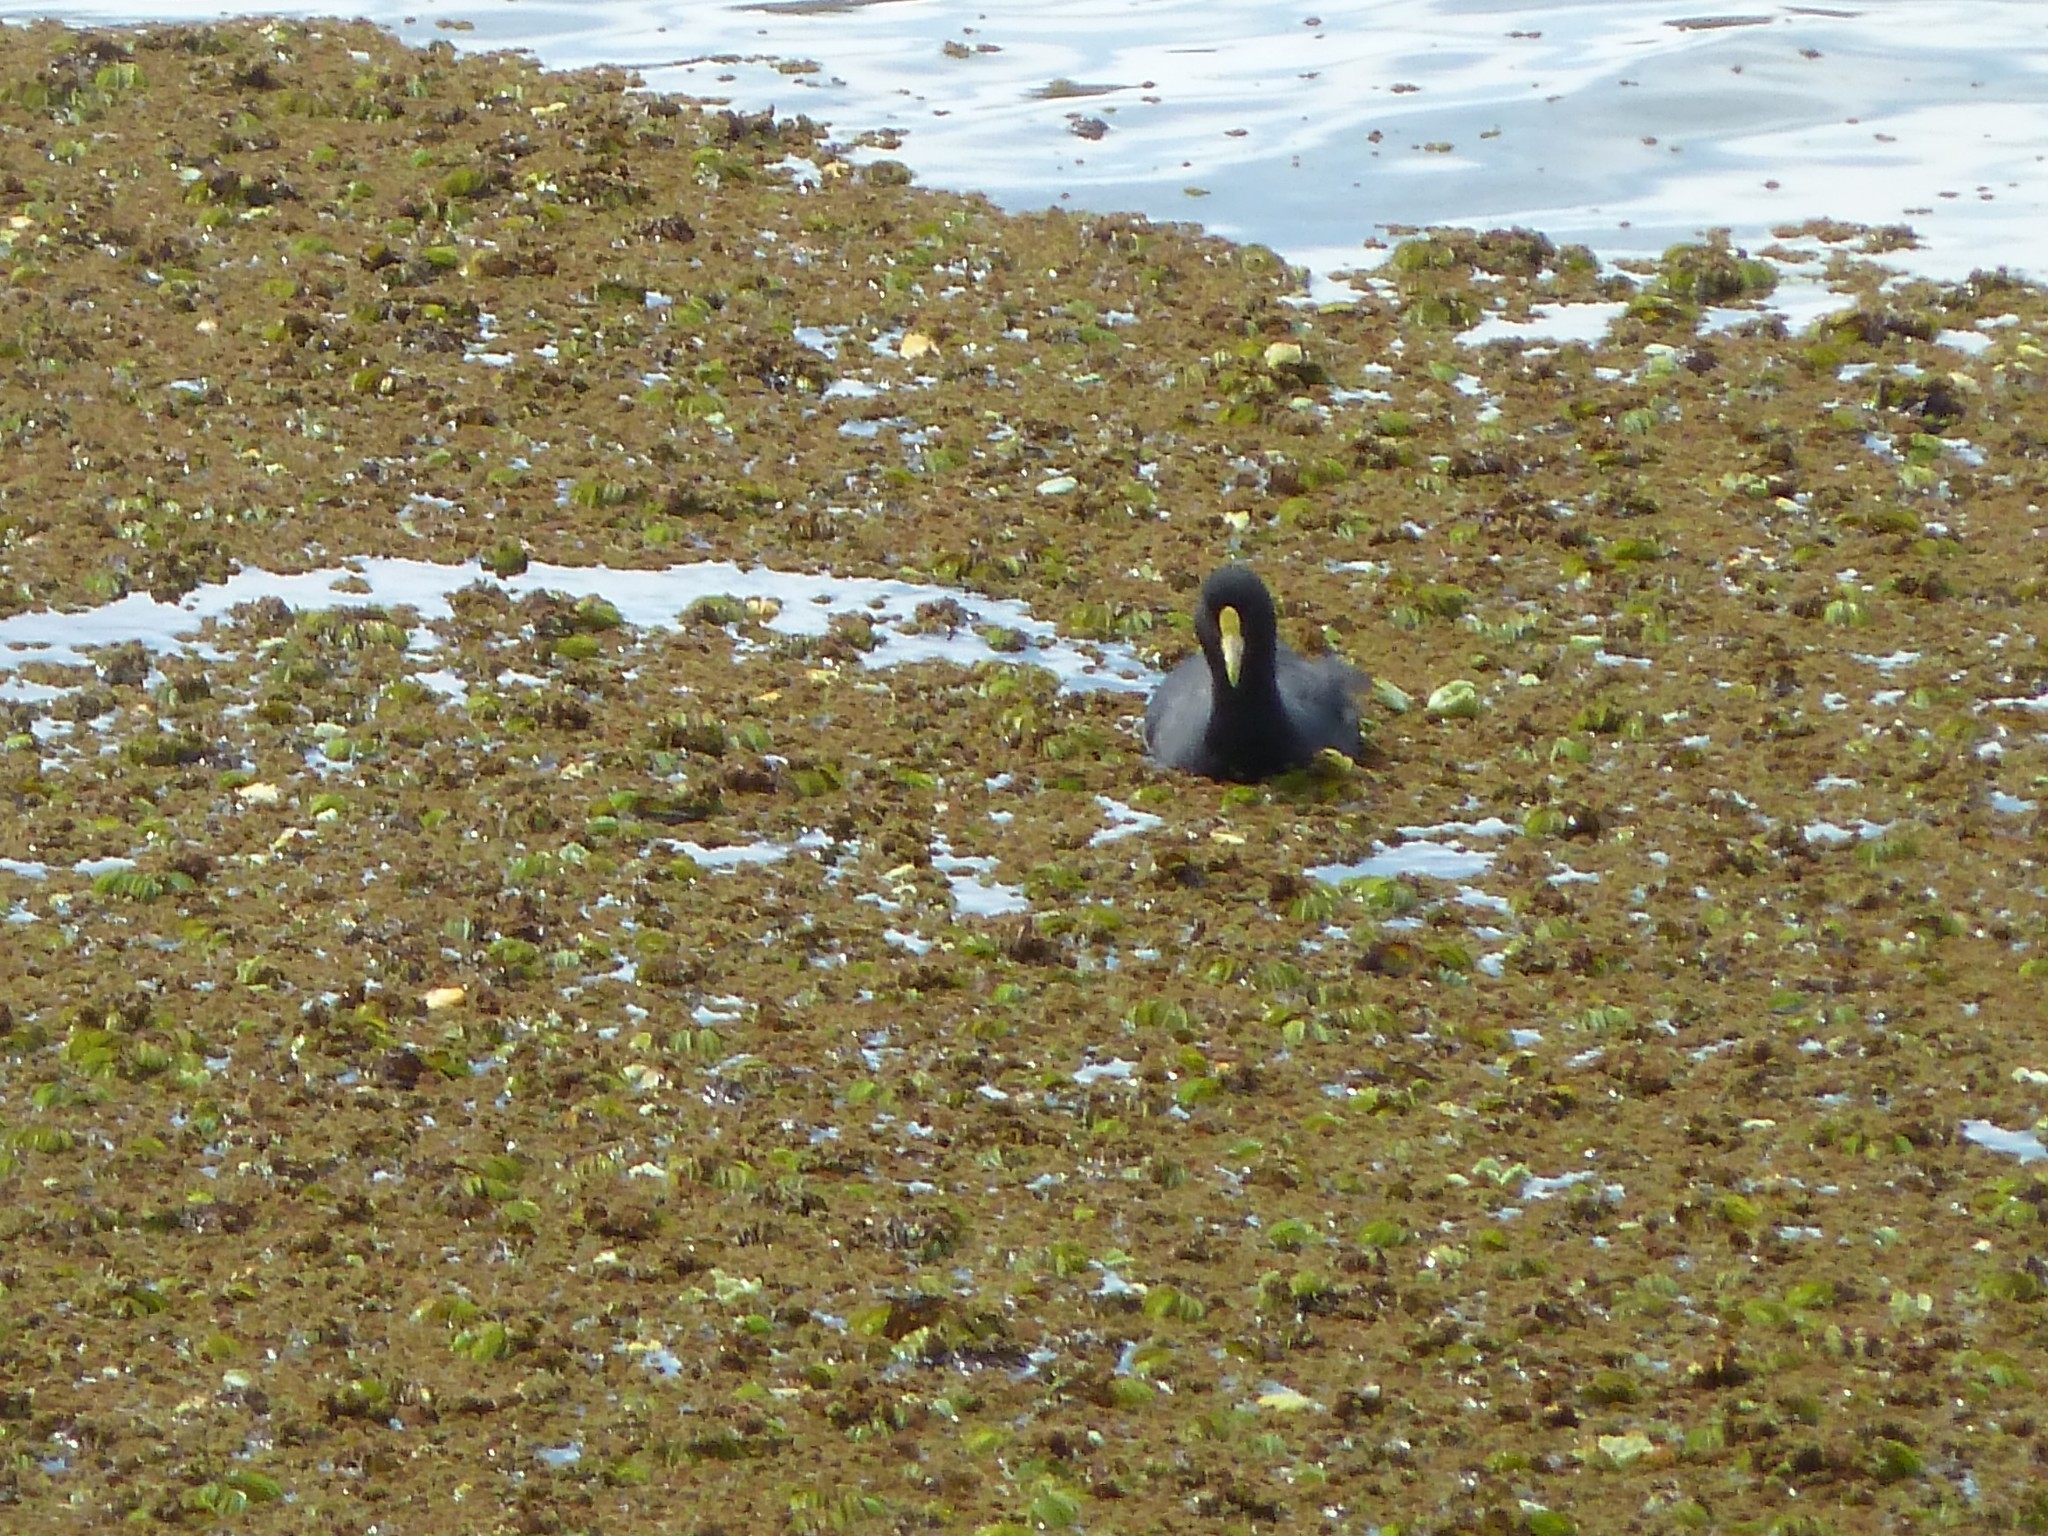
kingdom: Animalia
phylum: Chordata
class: Aves
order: Gruiformes
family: Rallidae
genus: Fulica
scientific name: Fulica leucoptera
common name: White-winged coot
